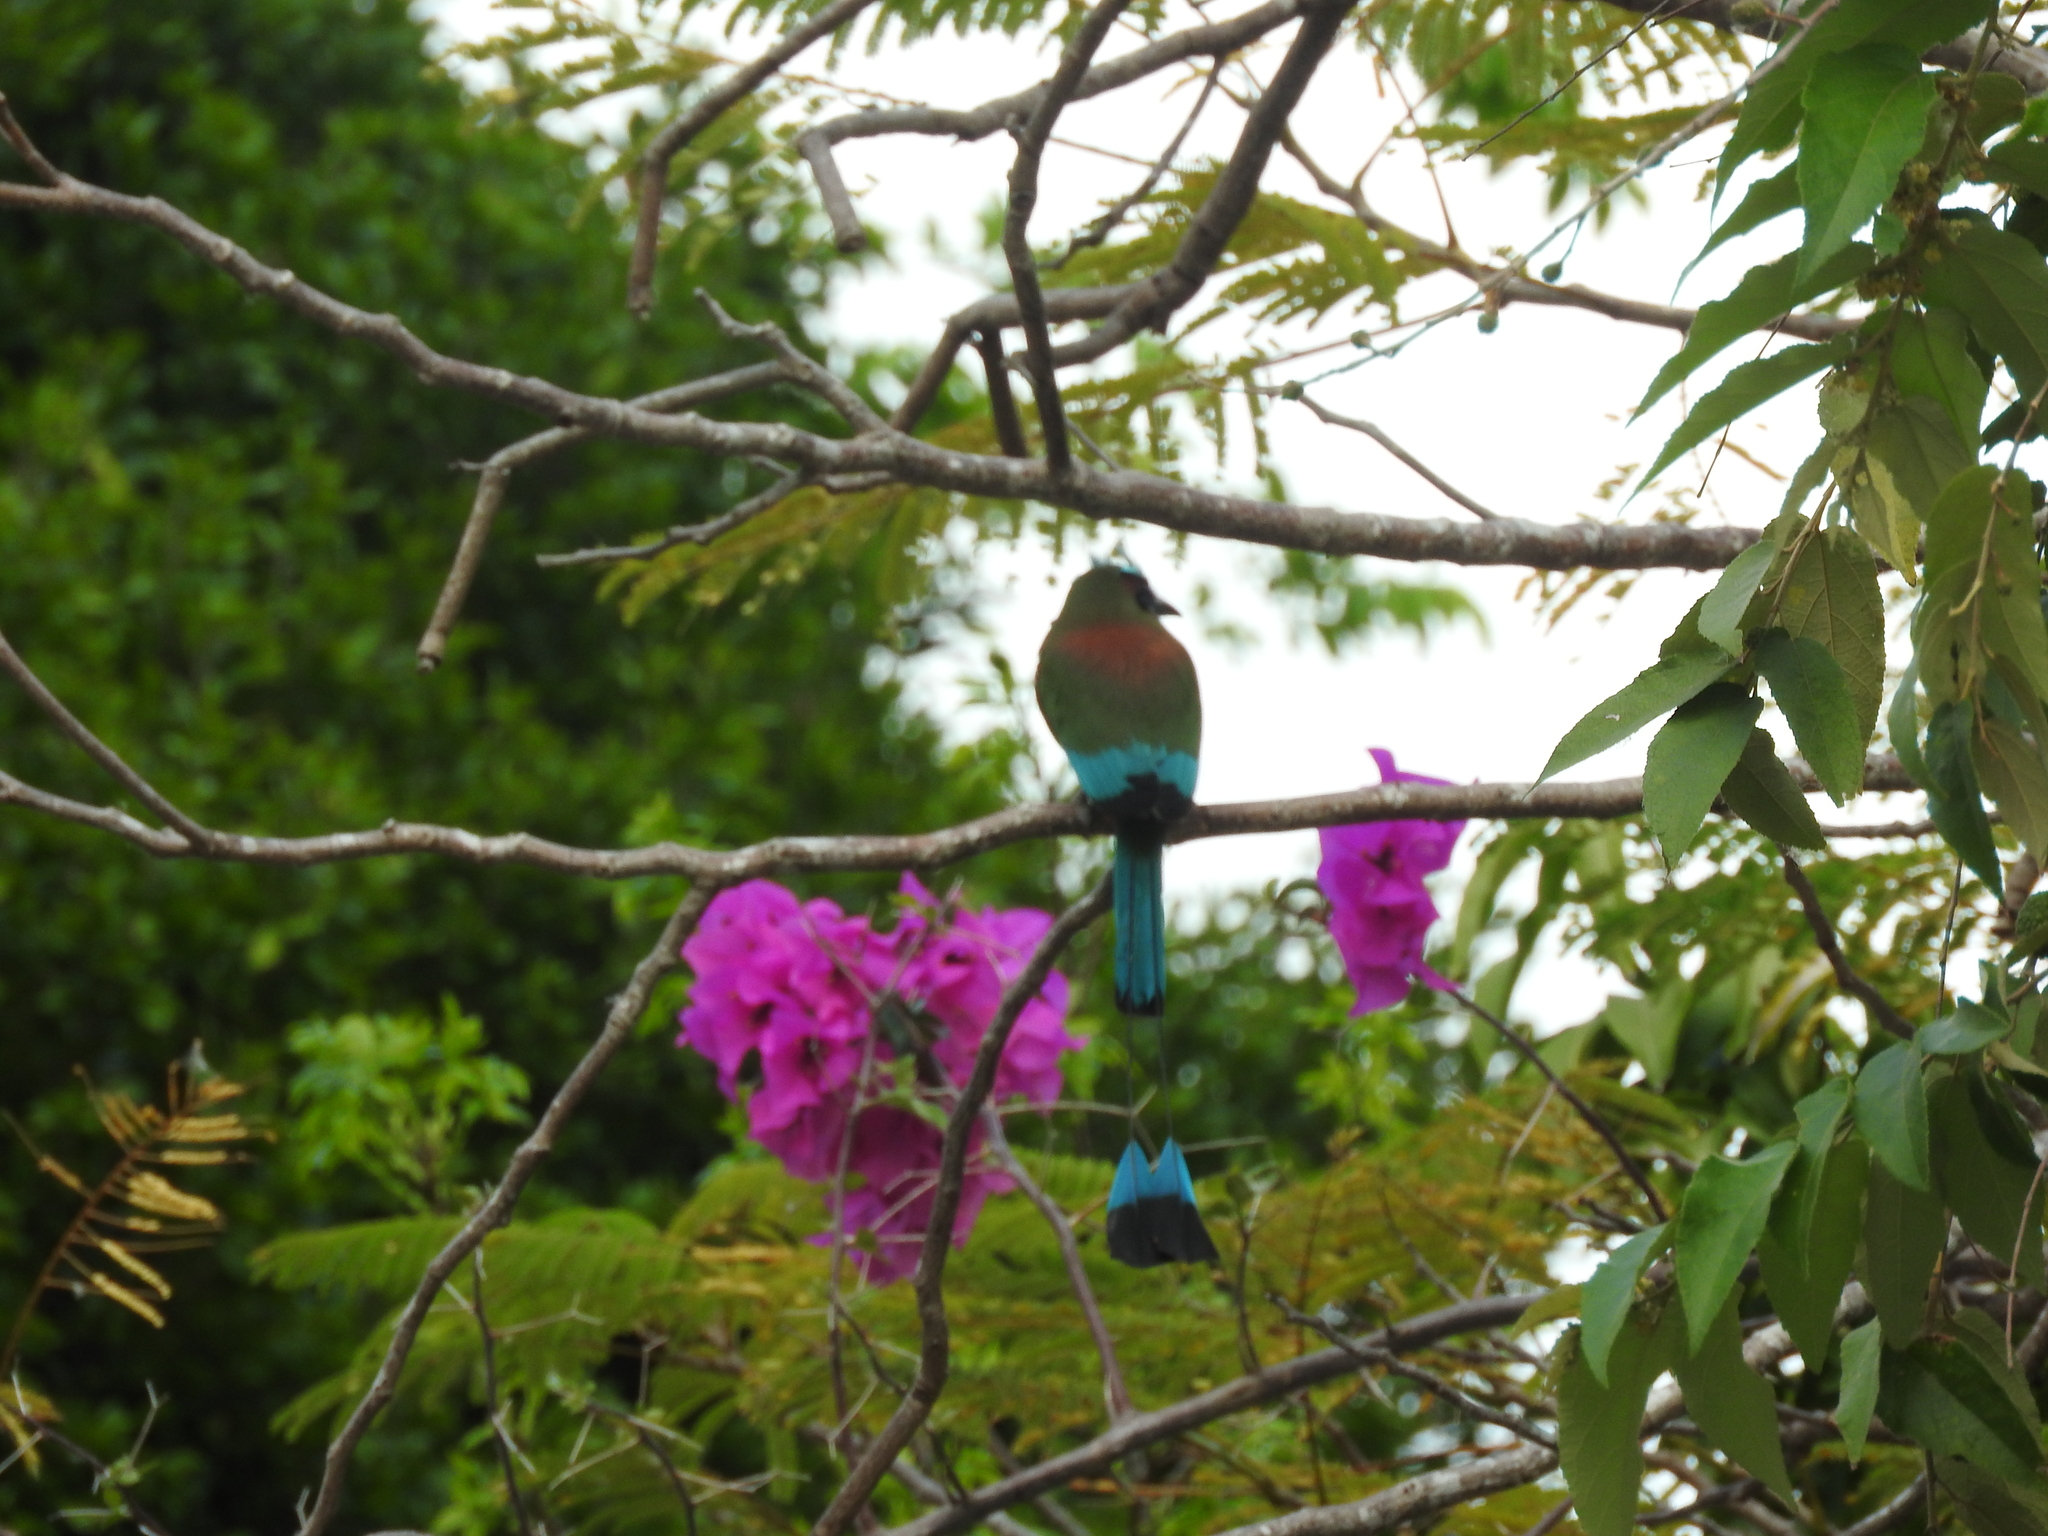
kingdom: Animalia
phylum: Chordata
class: Aves
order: Coraciiformes
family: Momotidae
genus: Eumomota
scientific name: Eumomota superciliosa
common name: Turquoise-browed motmot
